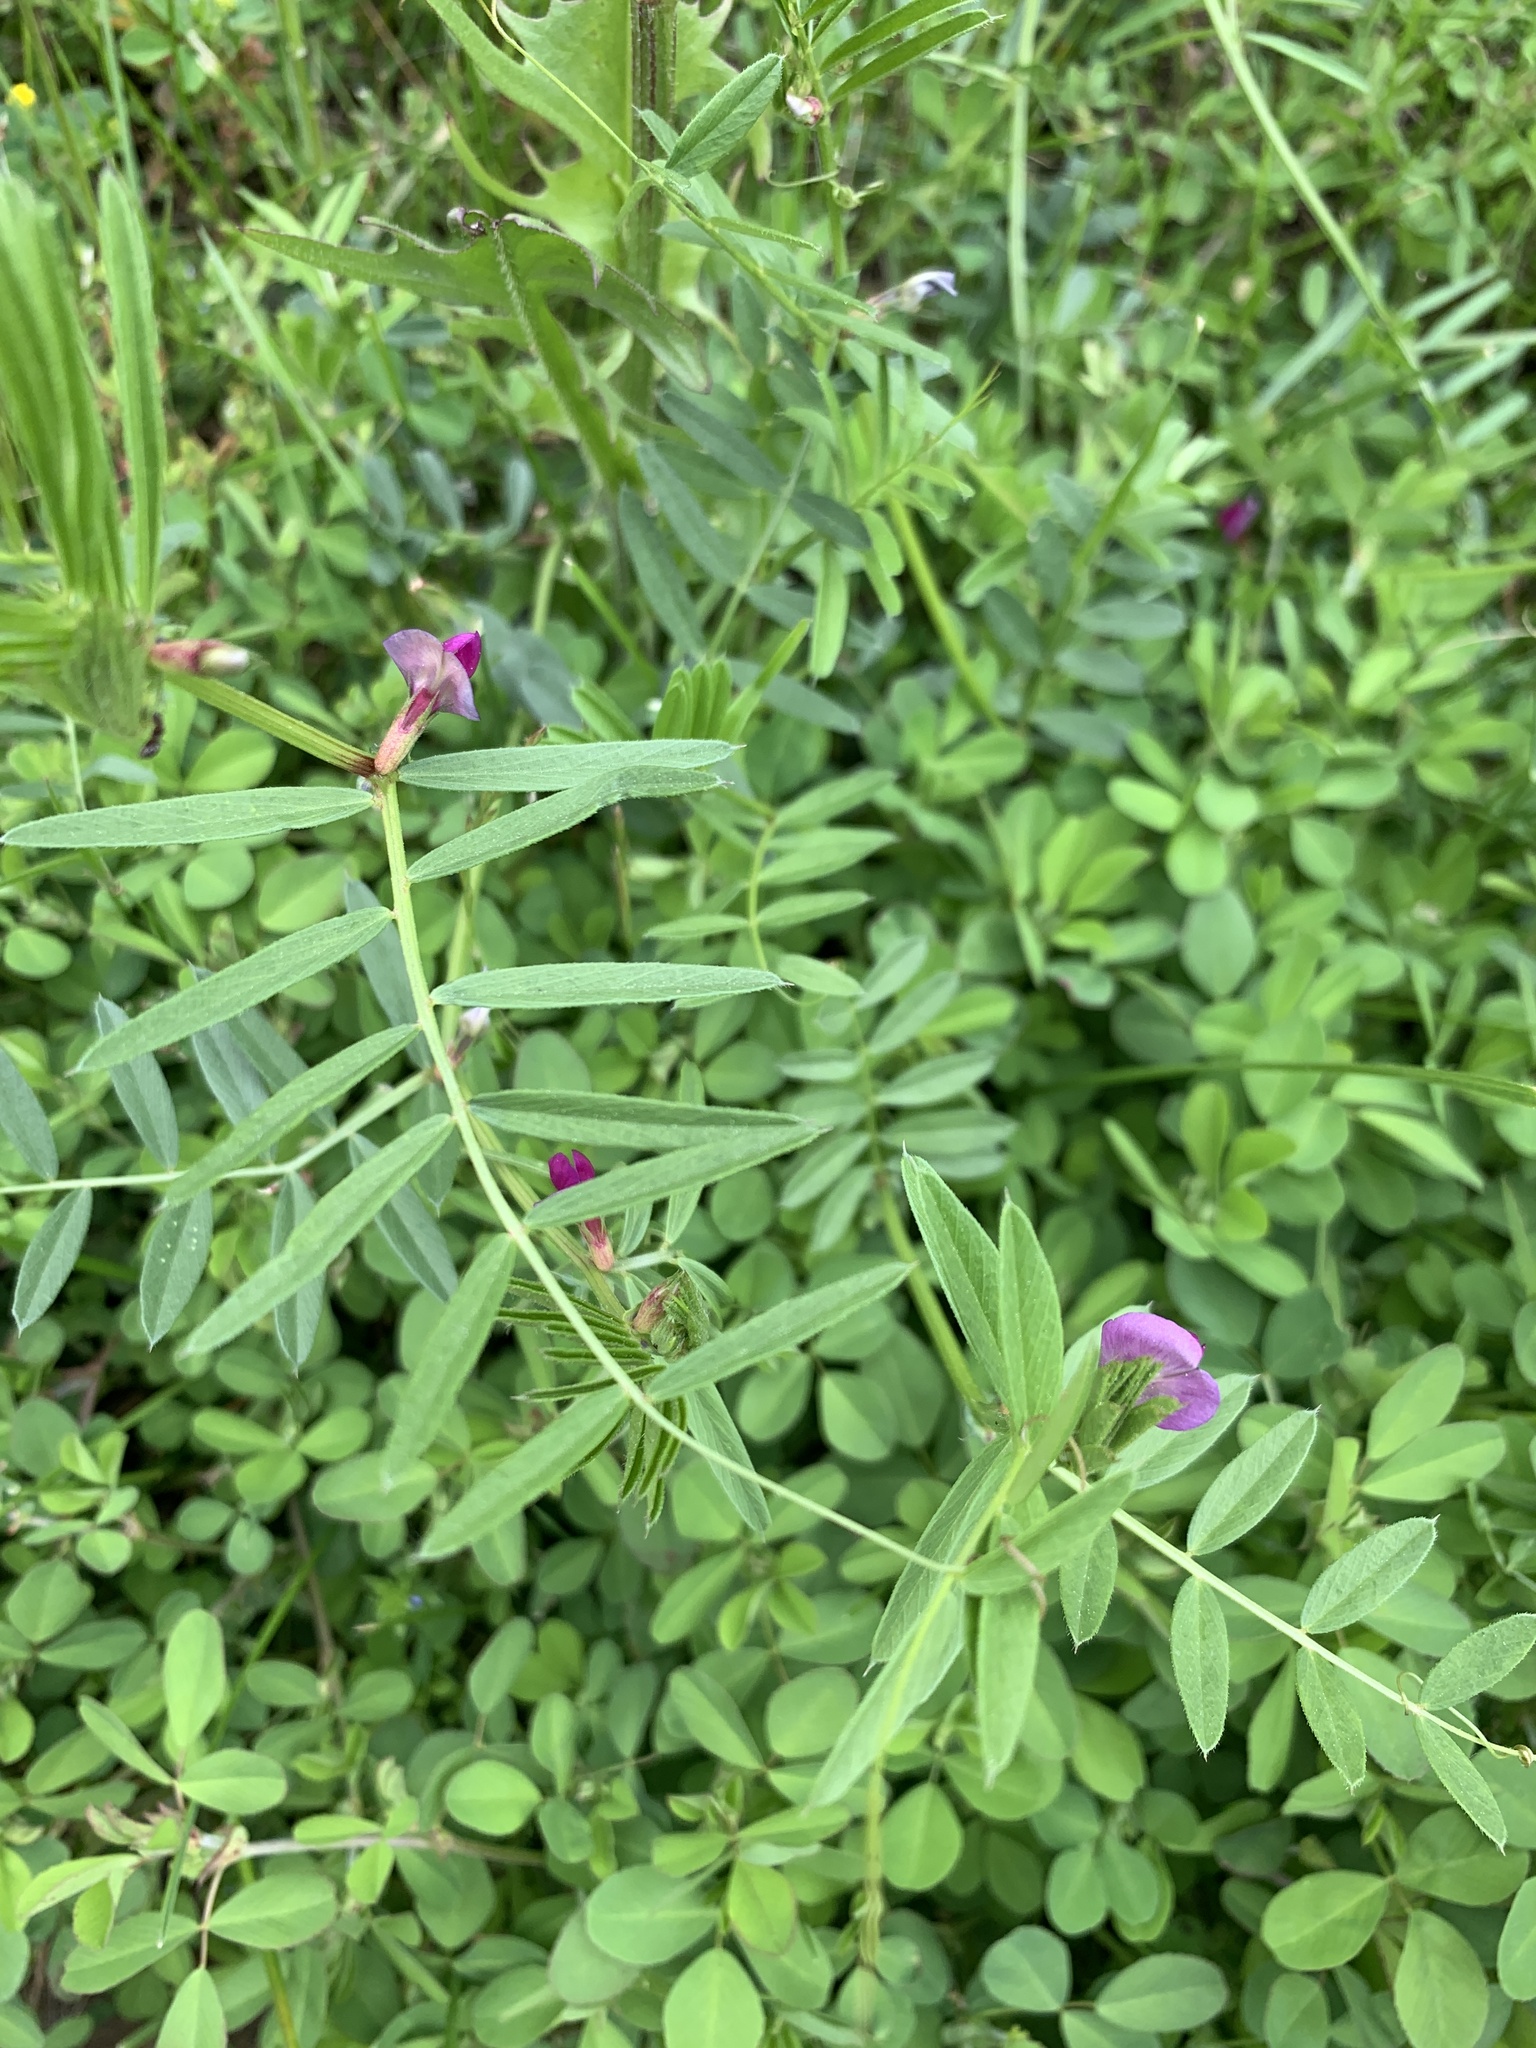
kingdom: Plantae
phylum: Tracheophyta
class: Magnoliopsida
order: Fabales
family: Fabaceae
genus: Vicia
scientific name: Vicia sativa
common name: Garden vetch
